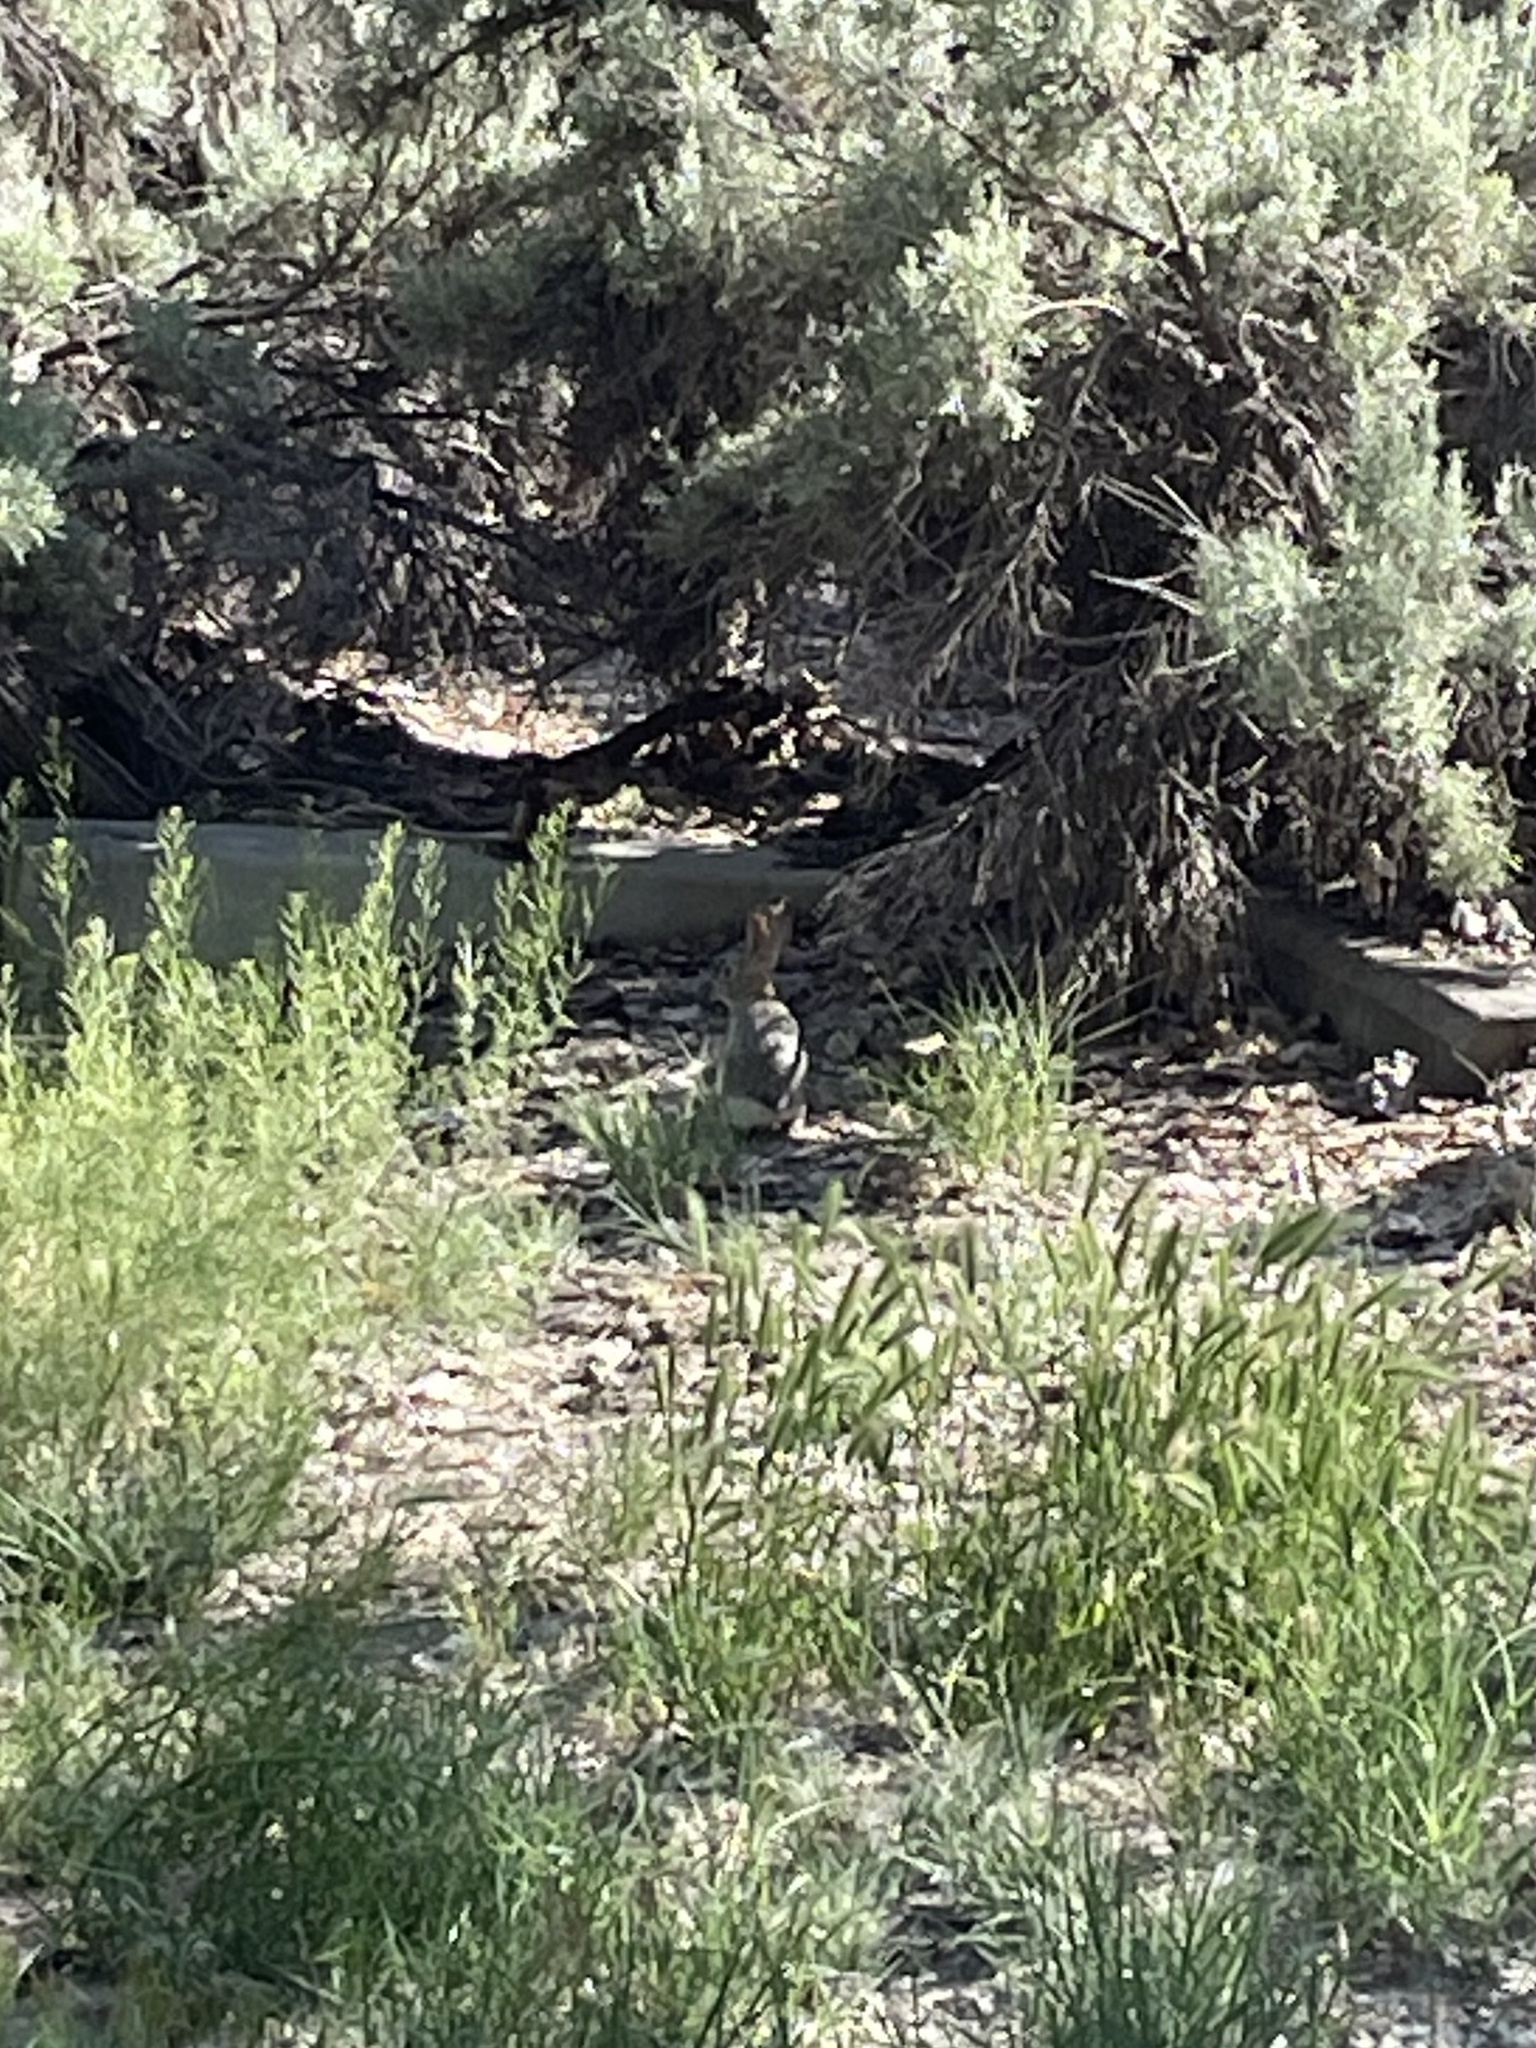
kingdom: Animalia
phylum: Chordata
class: Mammalia
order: Lagomorpha
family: Leporidae
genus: Sylvilagus
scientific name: Sylvilagus audubonii
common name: Desert cottontail
